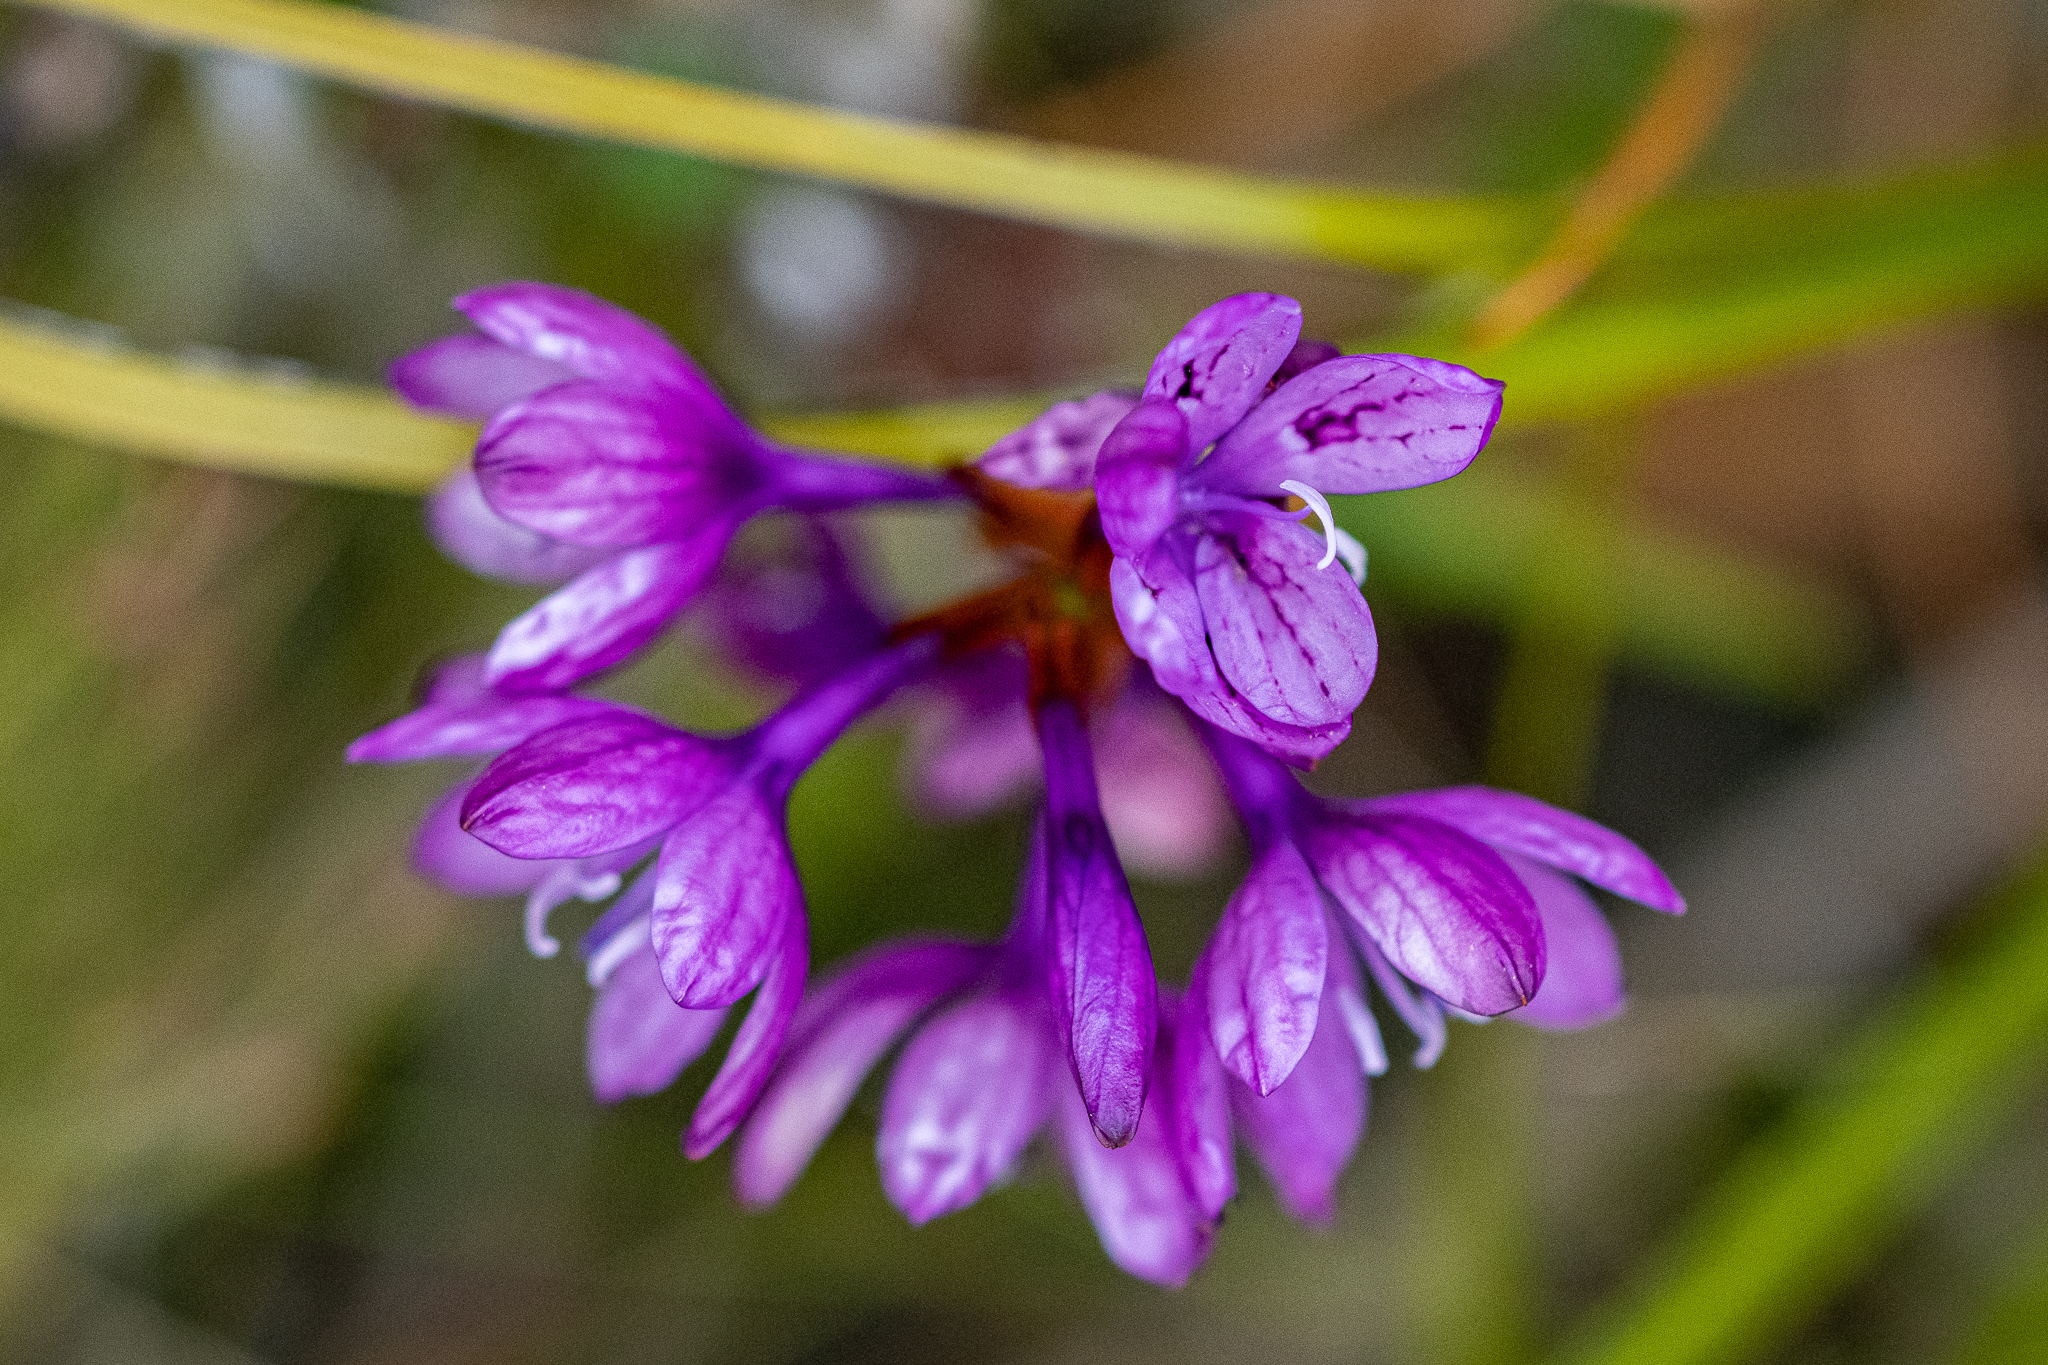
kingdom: Plantae
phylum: Tracheophyta
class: Liliopsida
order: Asparagales
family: Iridaceae
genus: Thereianthus
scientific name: Thereianthus bracteolatus
